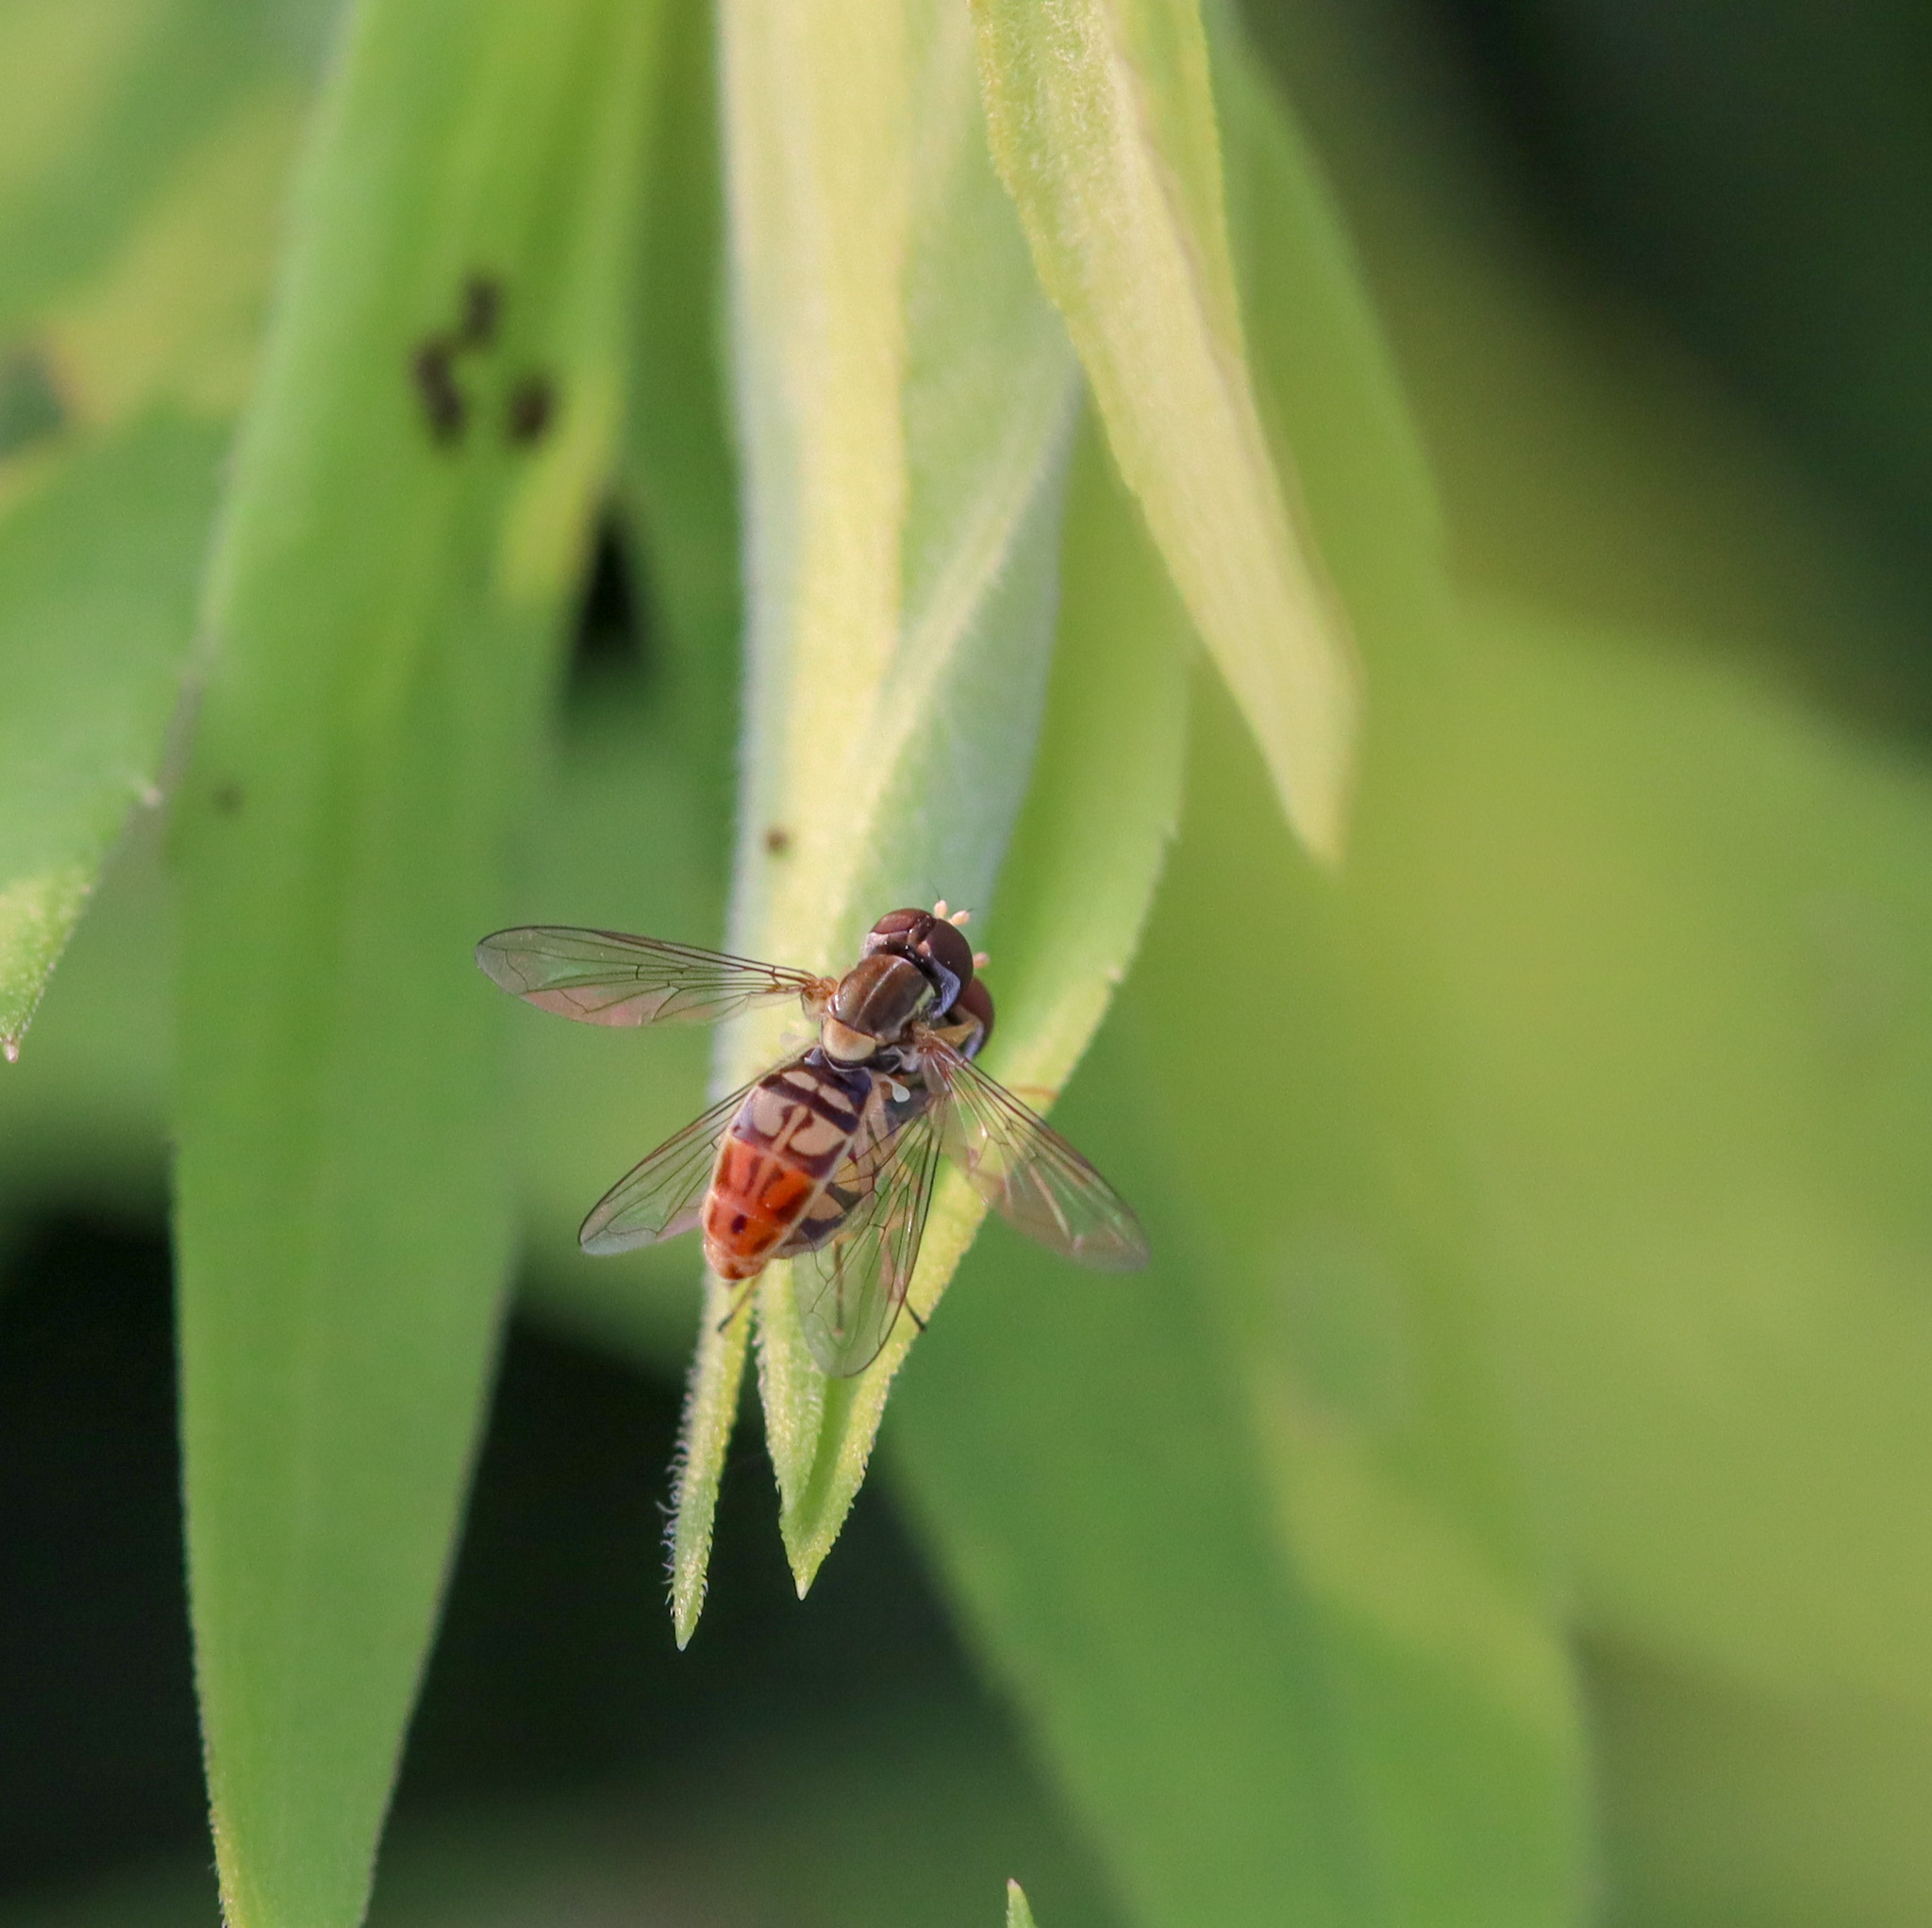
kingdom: Animalia
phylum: Arthropoda
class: Insecta
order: Diptera
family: Syrphidae
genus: Toxomerus
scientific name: Toxomerus marginatus
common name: Syrphid fly
